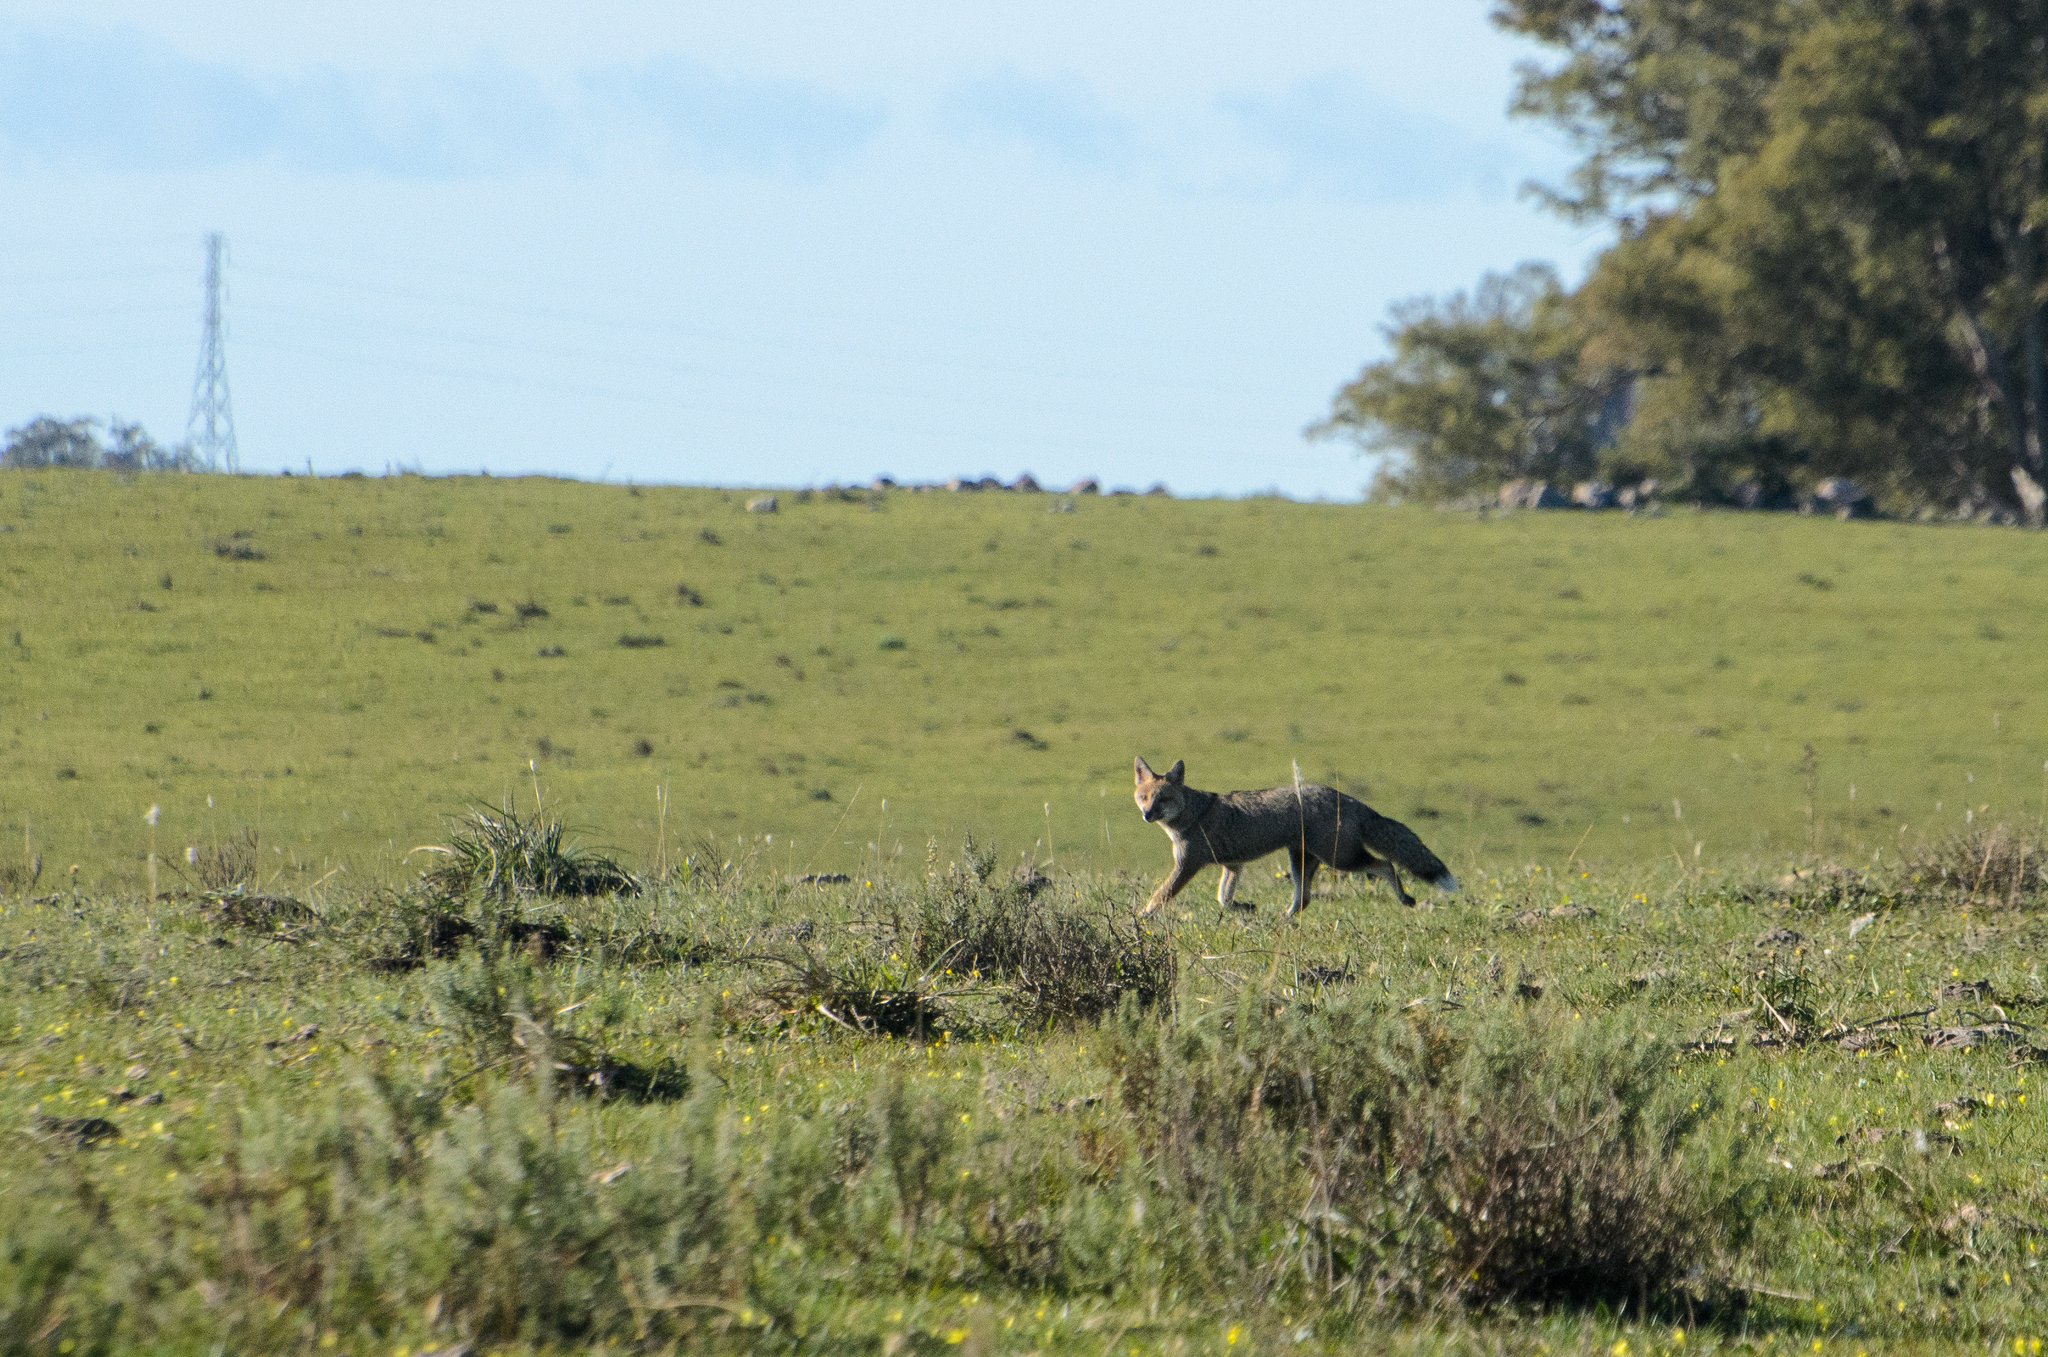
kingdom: Animalia
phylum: Chordata
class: Mammalia
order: Carnivora
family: Canidae
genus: Lycalopex
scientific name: Lycalopex gymnocercus
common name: Pampas fox
